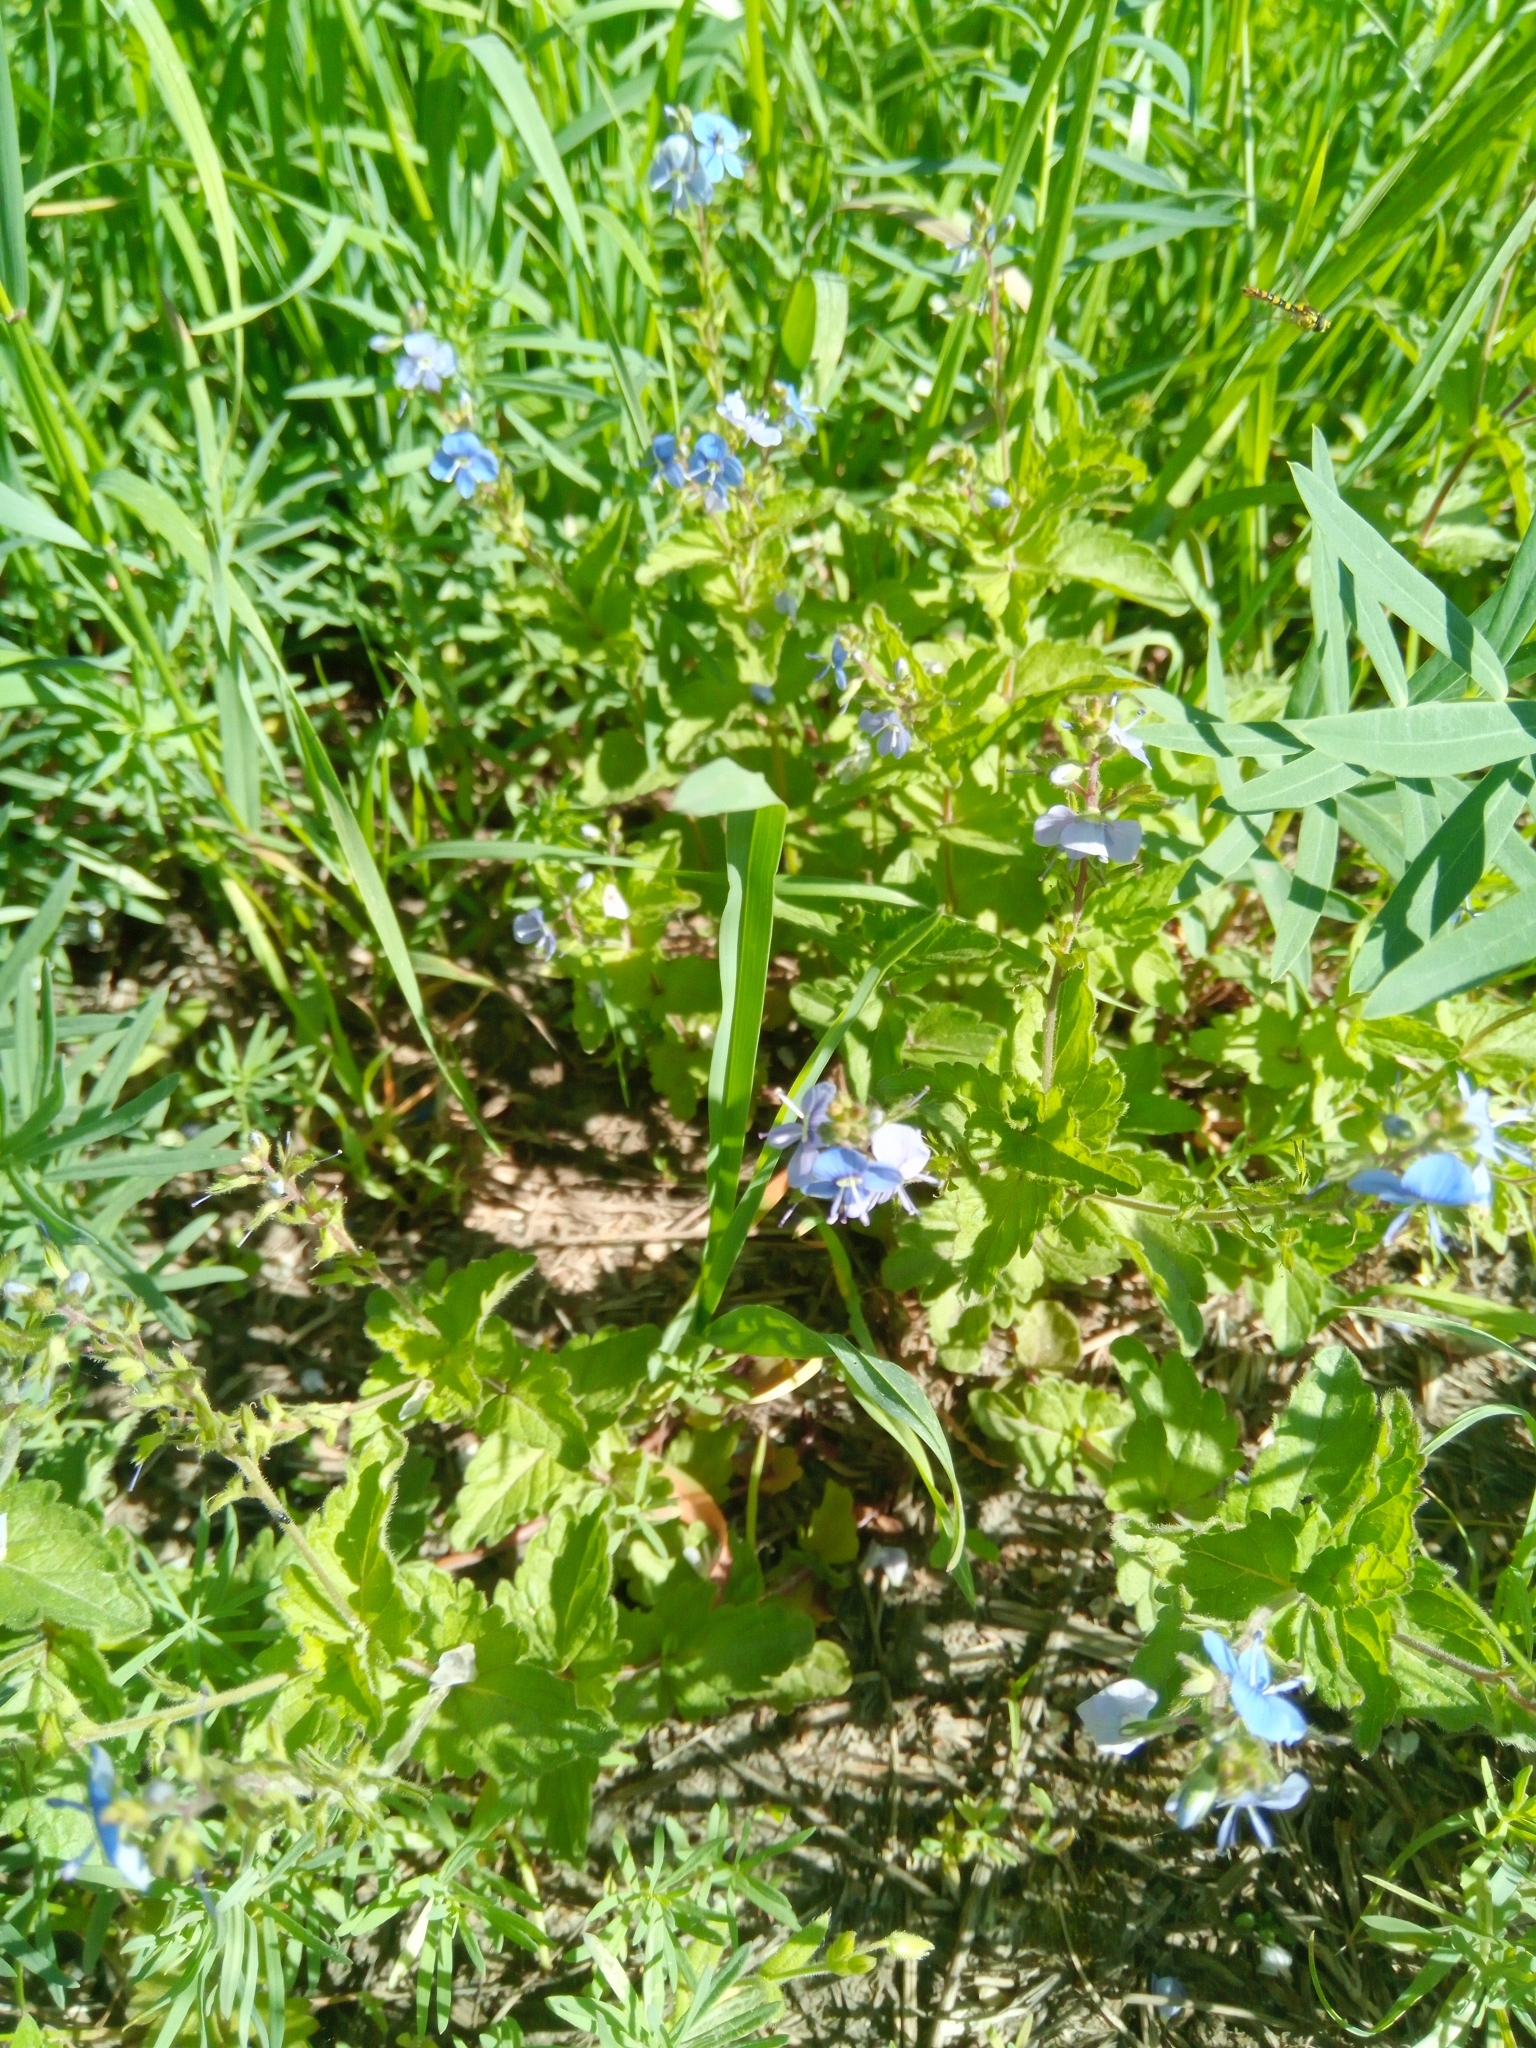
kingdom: Plantae
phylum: Tracheophyta
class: Magnoliopsida
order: Lamiales
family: Plantaginaceae
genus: Veronica
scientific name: Veronica chamaedrys
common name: Germander speedwell
